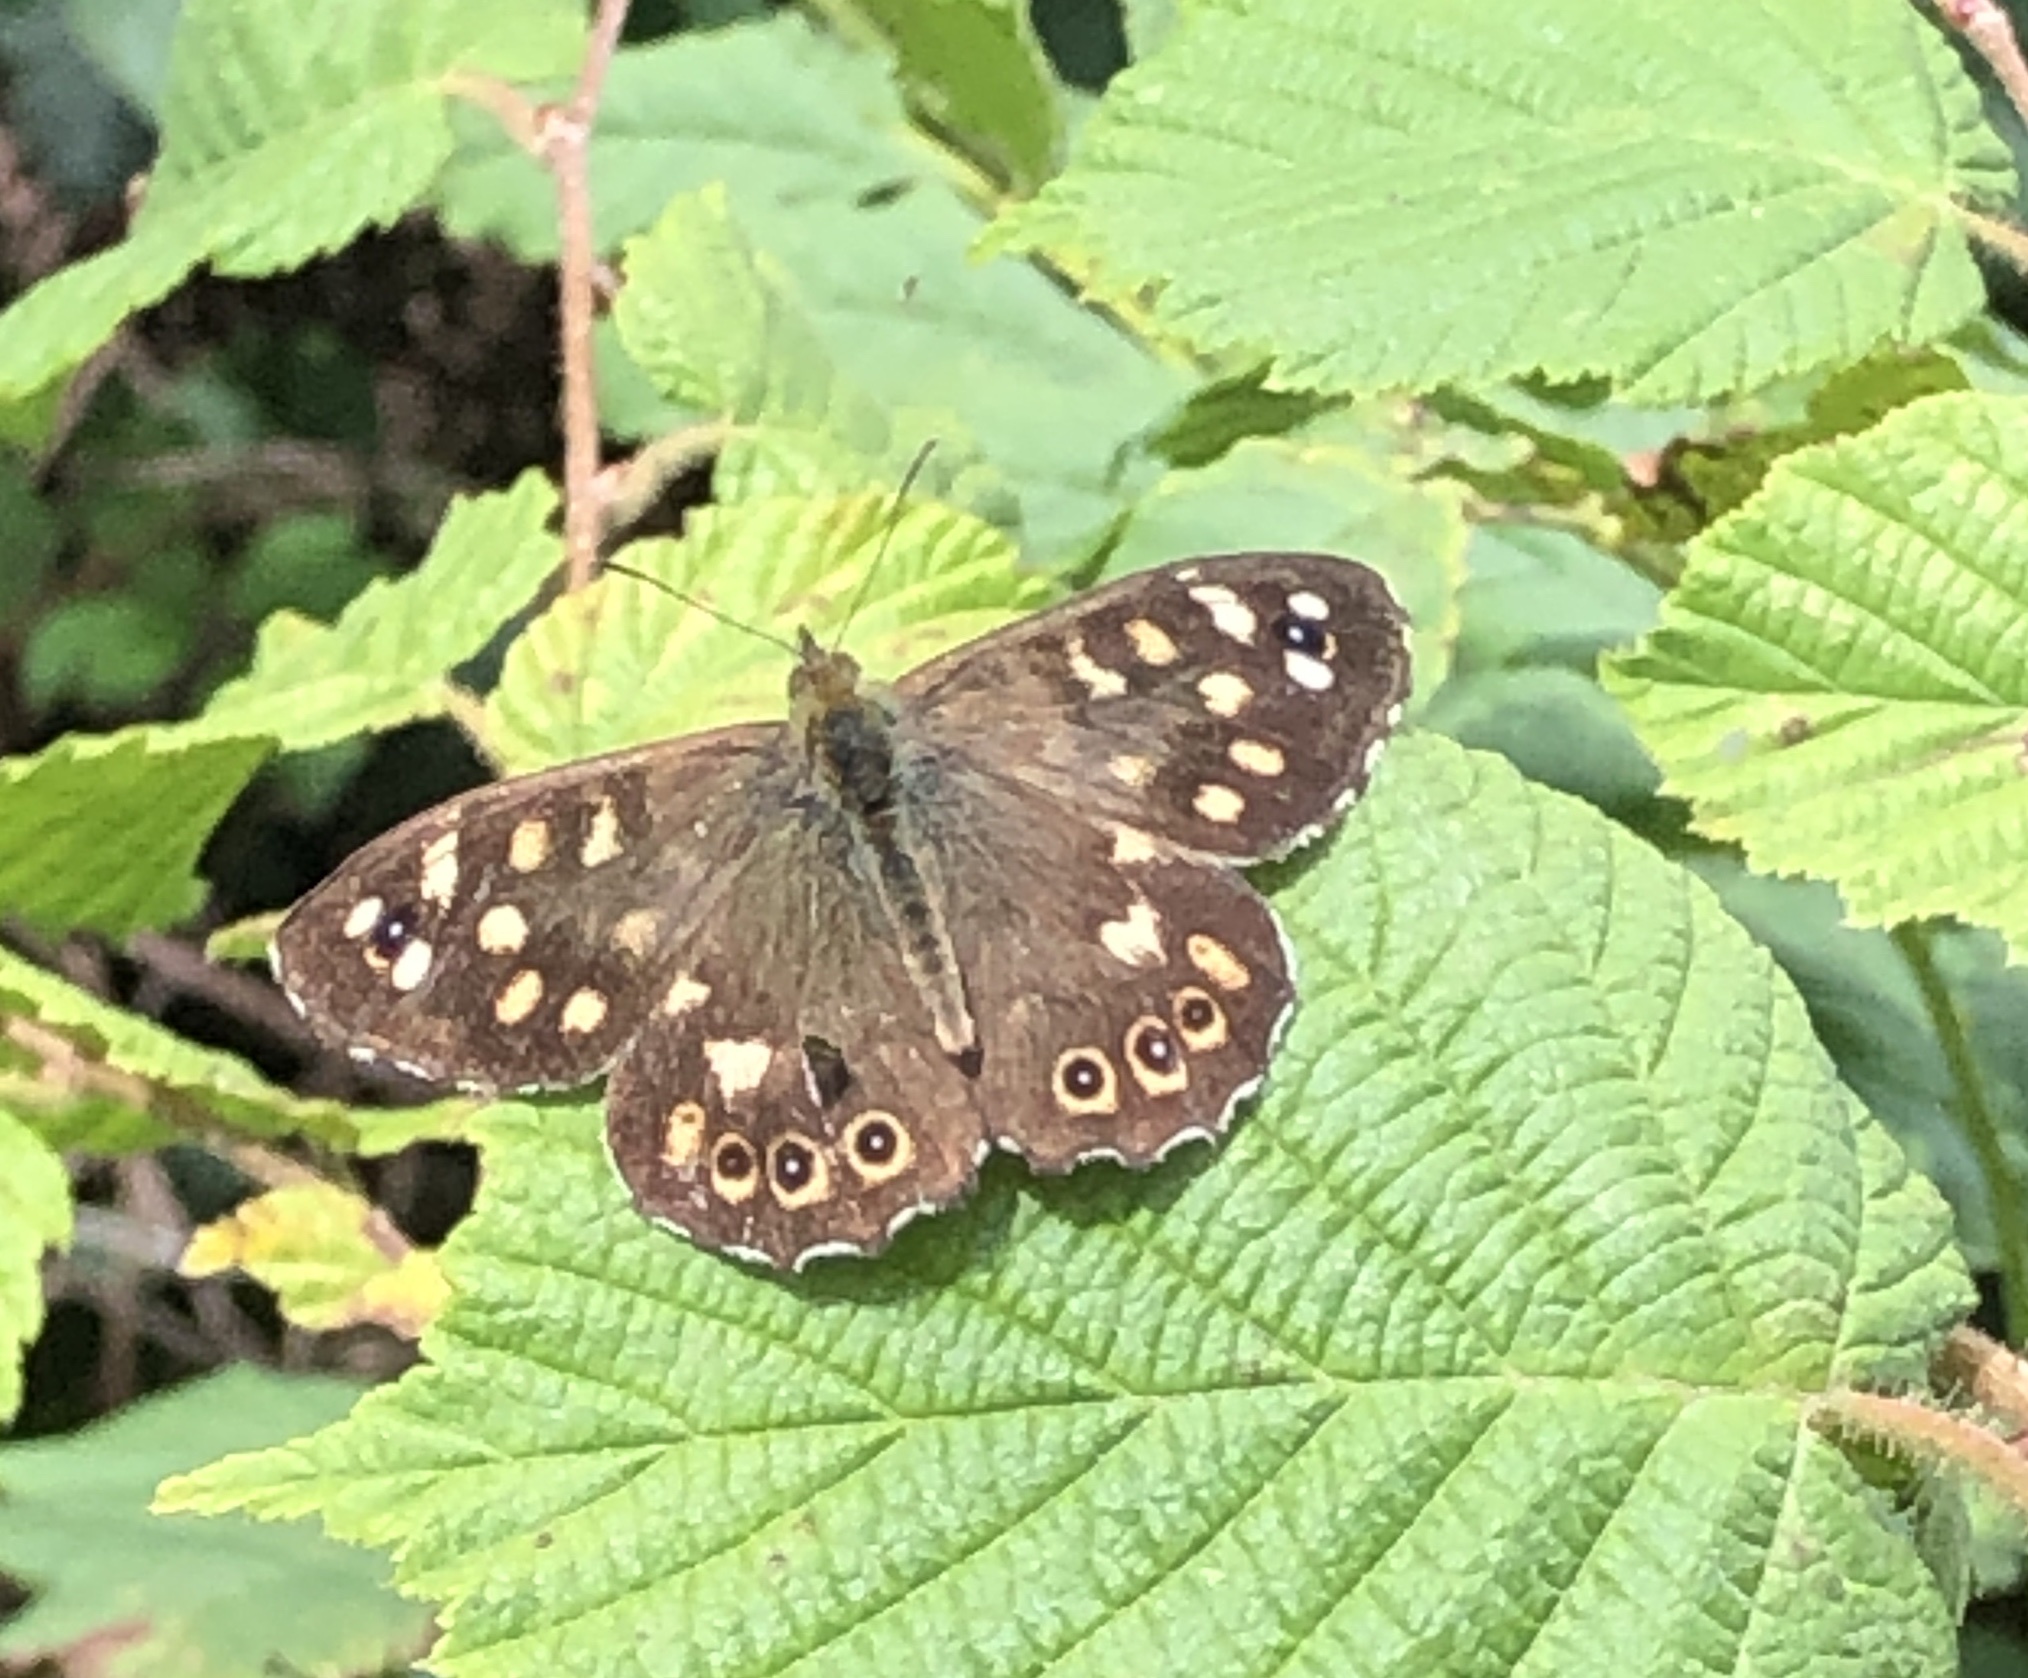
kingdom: Animalia
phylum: Arthropoda
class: Insecta
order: Lepidoptera
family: Nymphalidae
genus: Pararge
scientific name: Pararge aegeria
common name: Speckled wood
